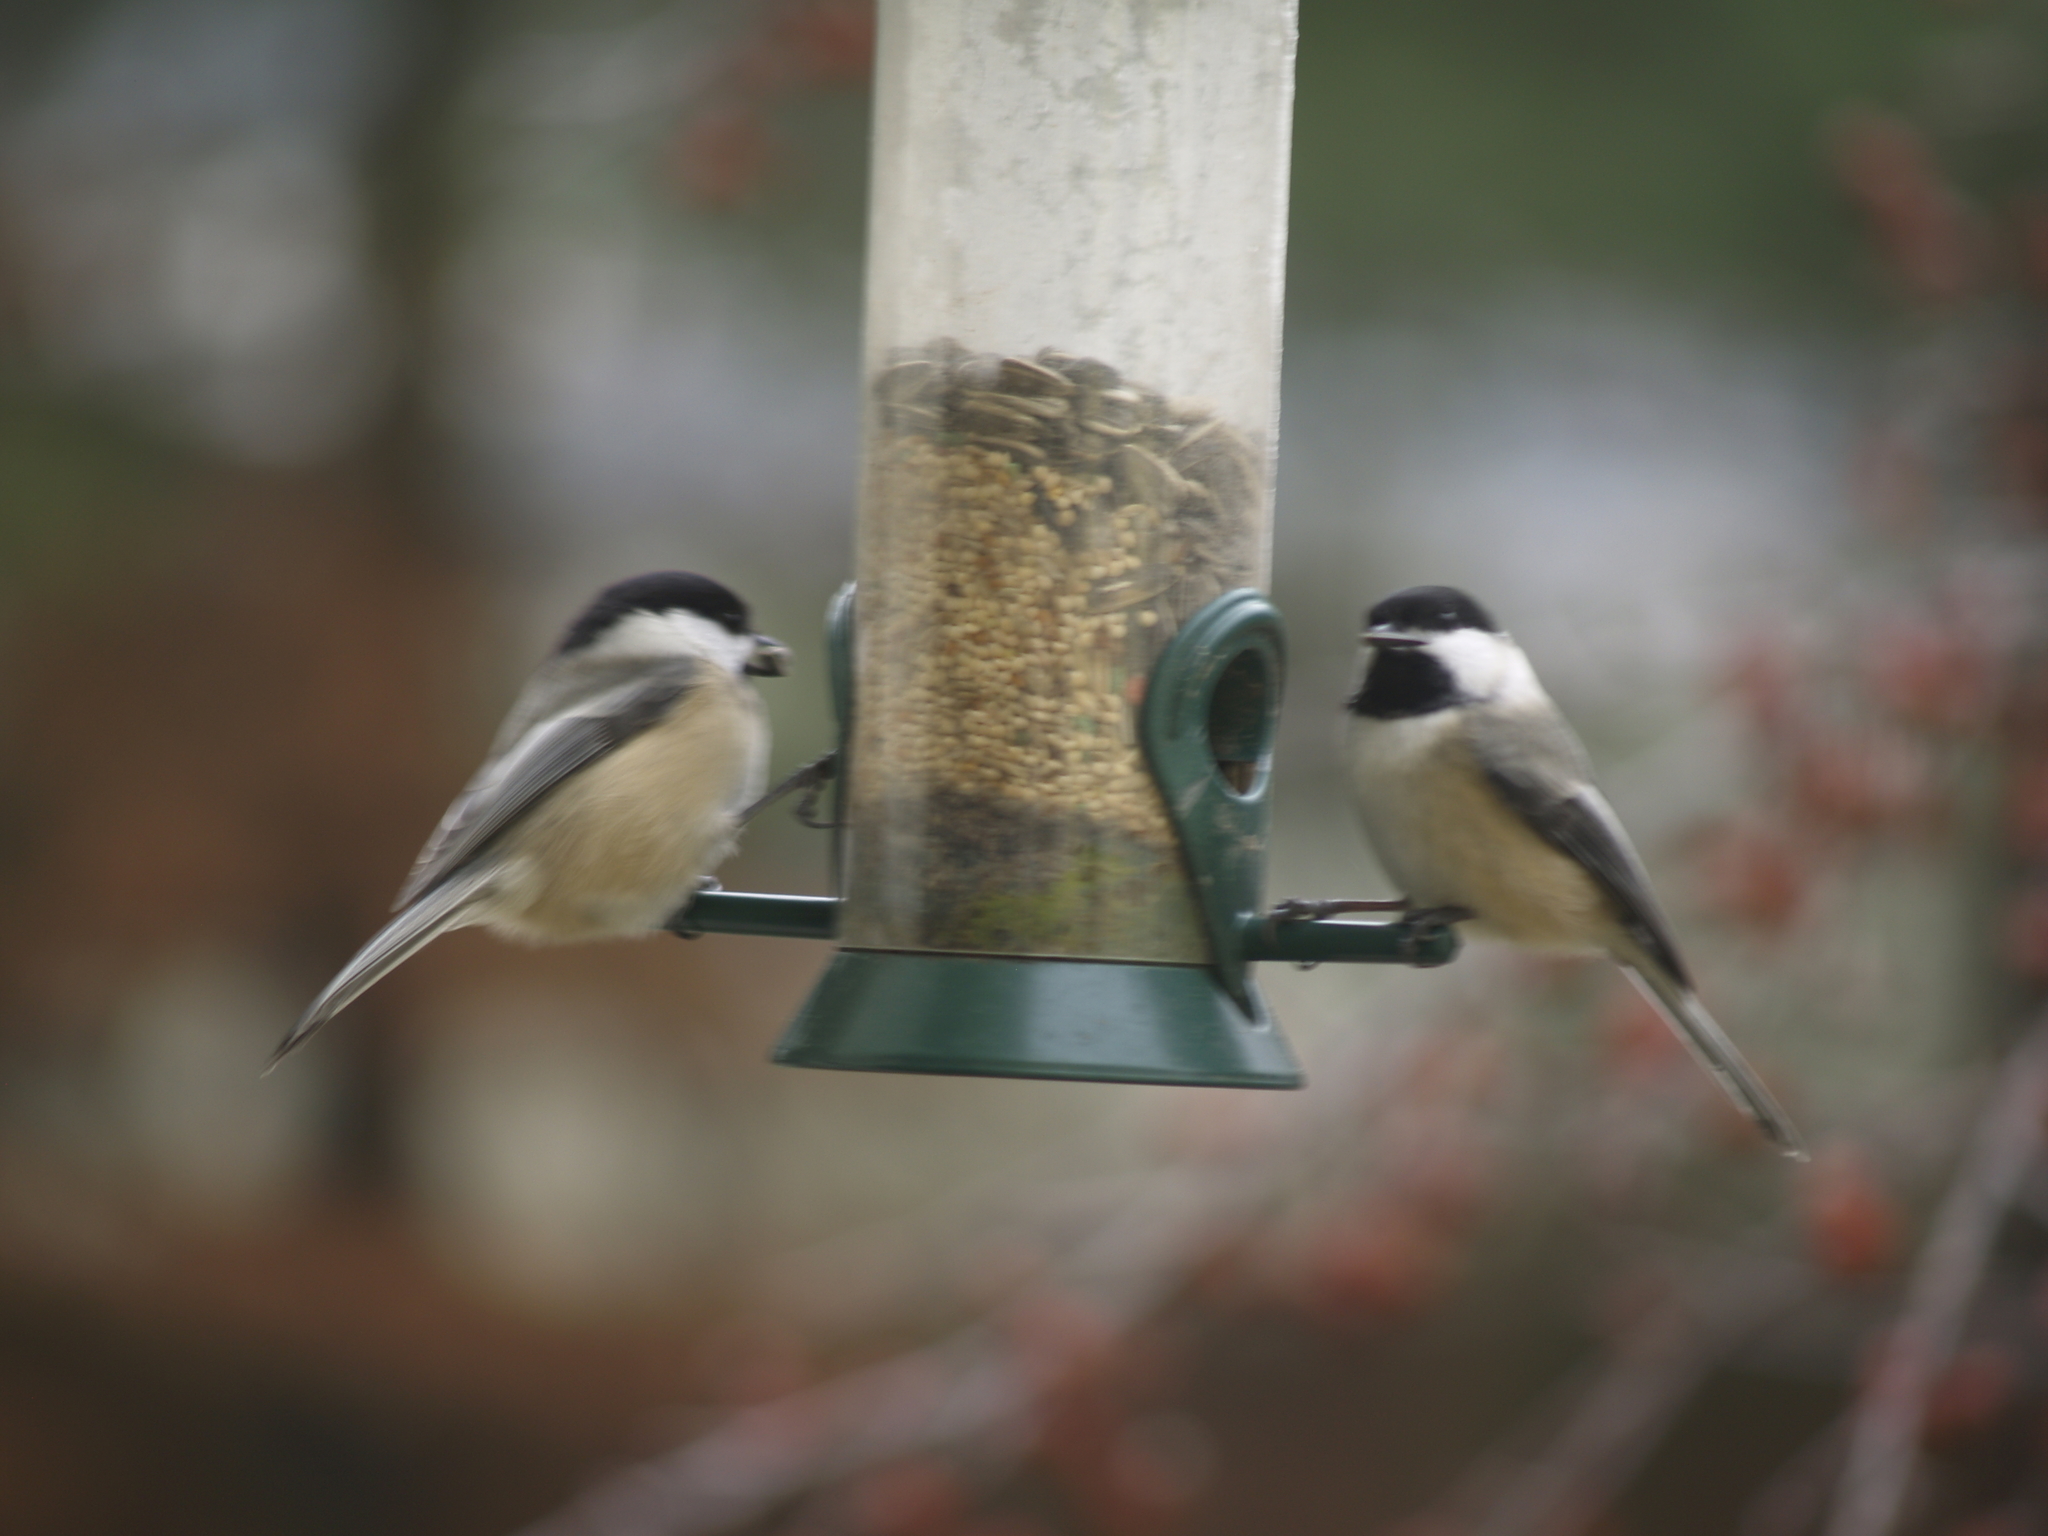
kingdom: Animalia
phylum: Chordata
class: Aves
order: Passeriformes
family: Paridae
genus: Poecile
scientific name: Poecile atricapillus
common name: Black-capped chickadee
